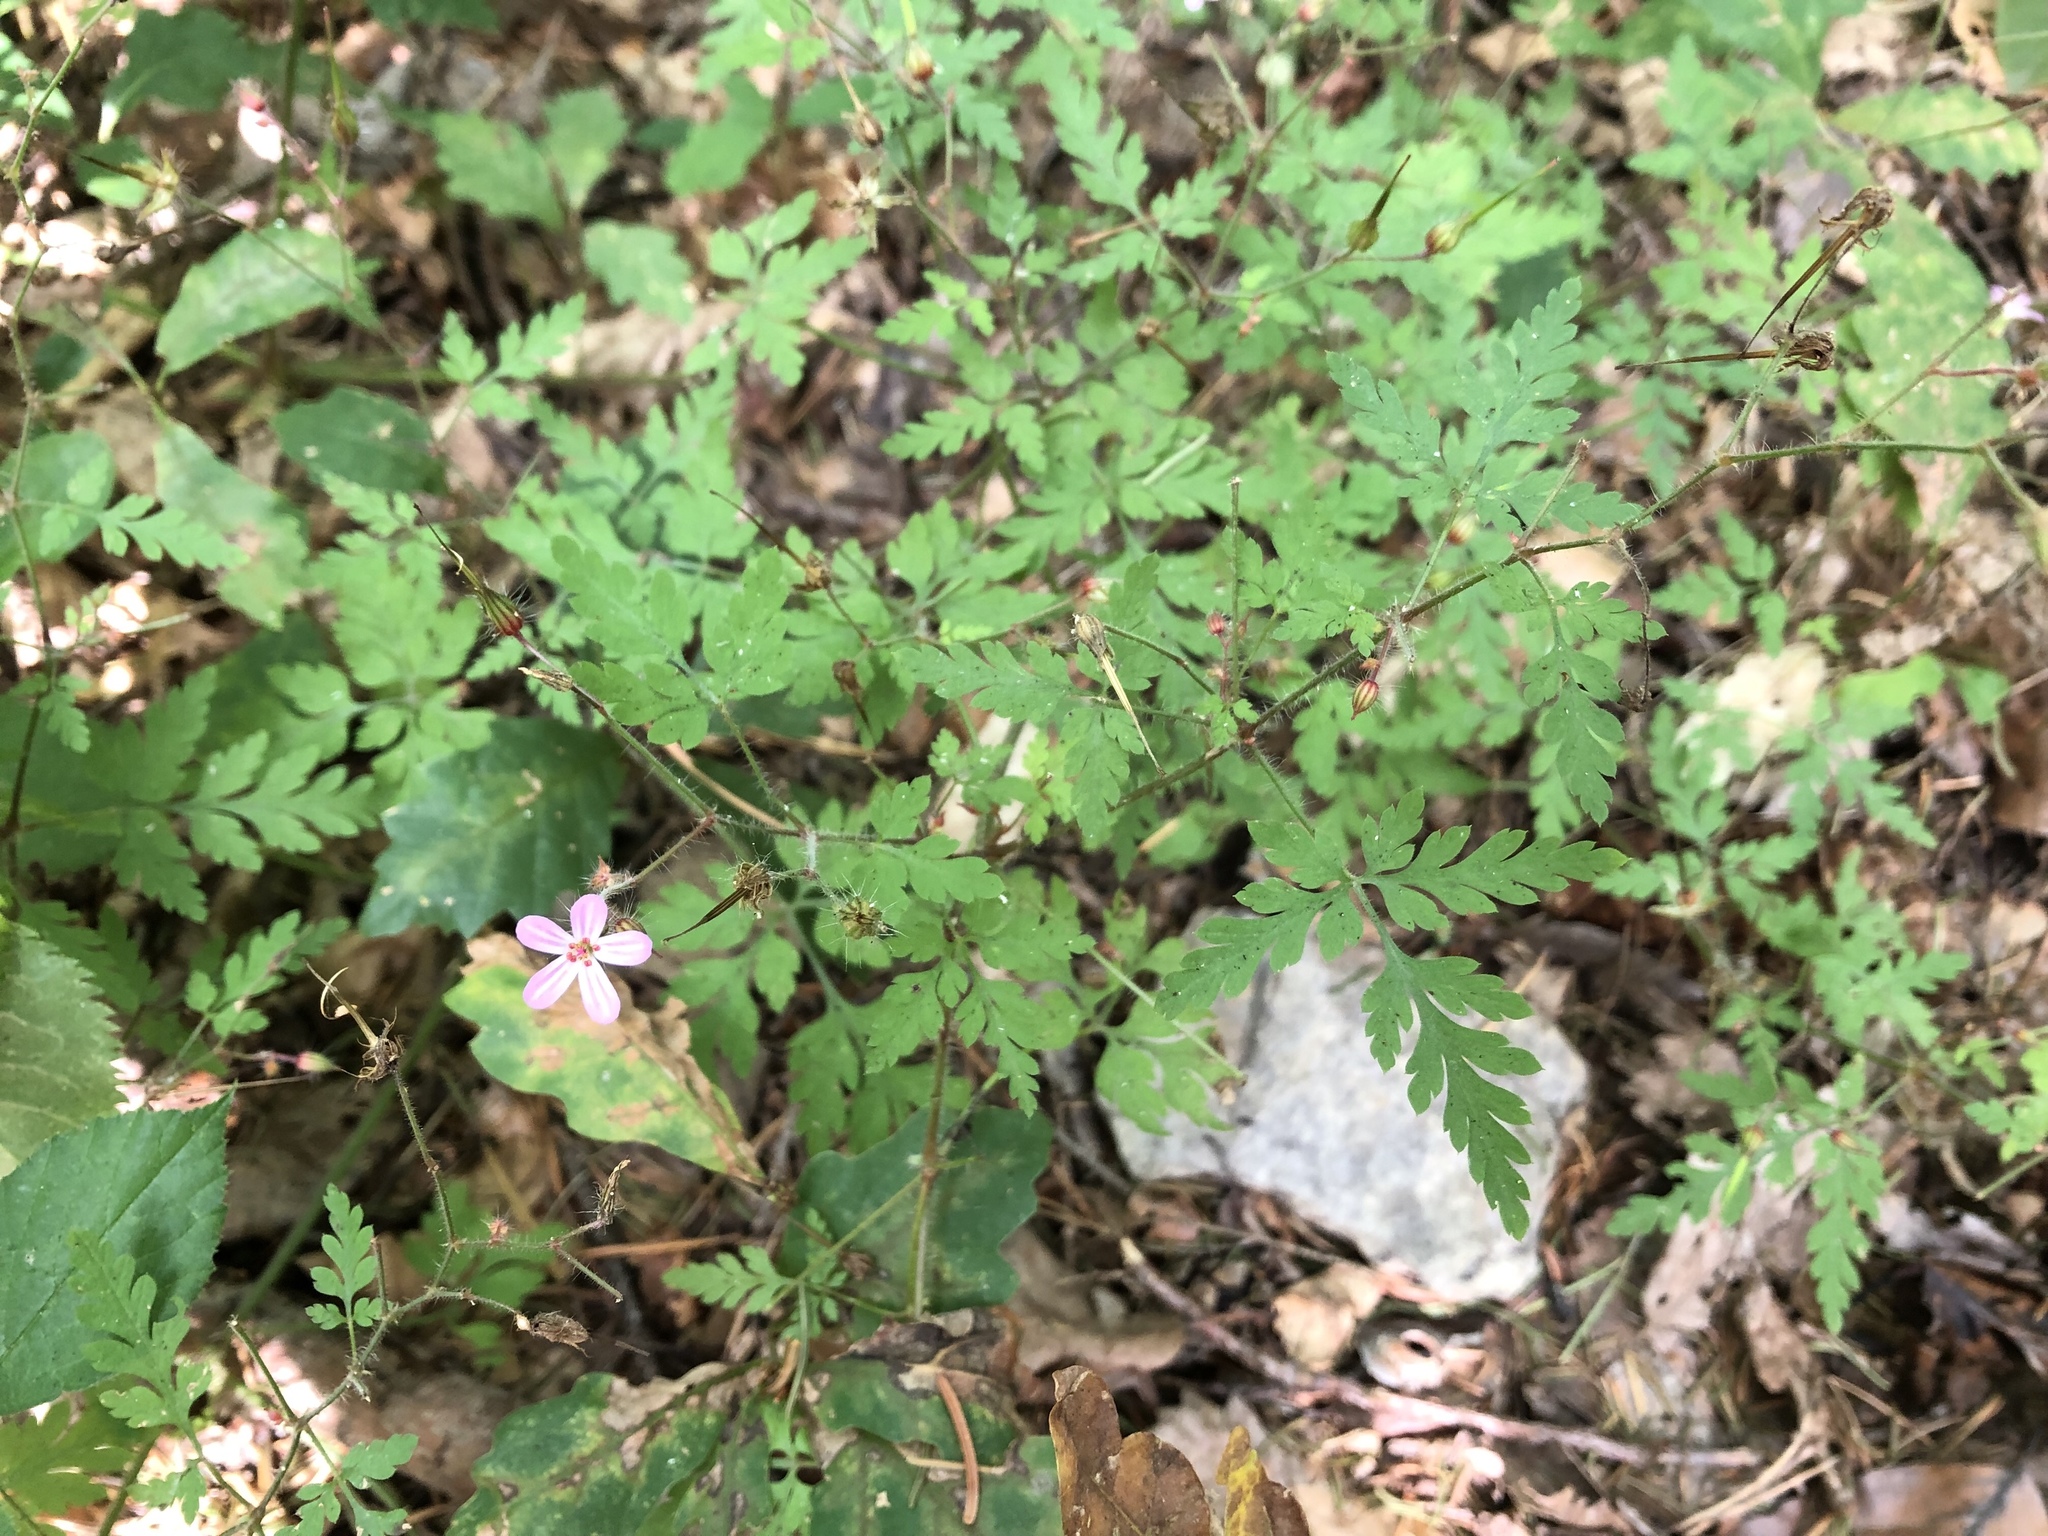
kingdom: Plantae
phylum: Tracheophyta
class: Magnoliopsida
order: Geraniales
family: Geraniaceae
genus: Geranium
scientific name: Geranium robertianum
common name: Herb-robert
